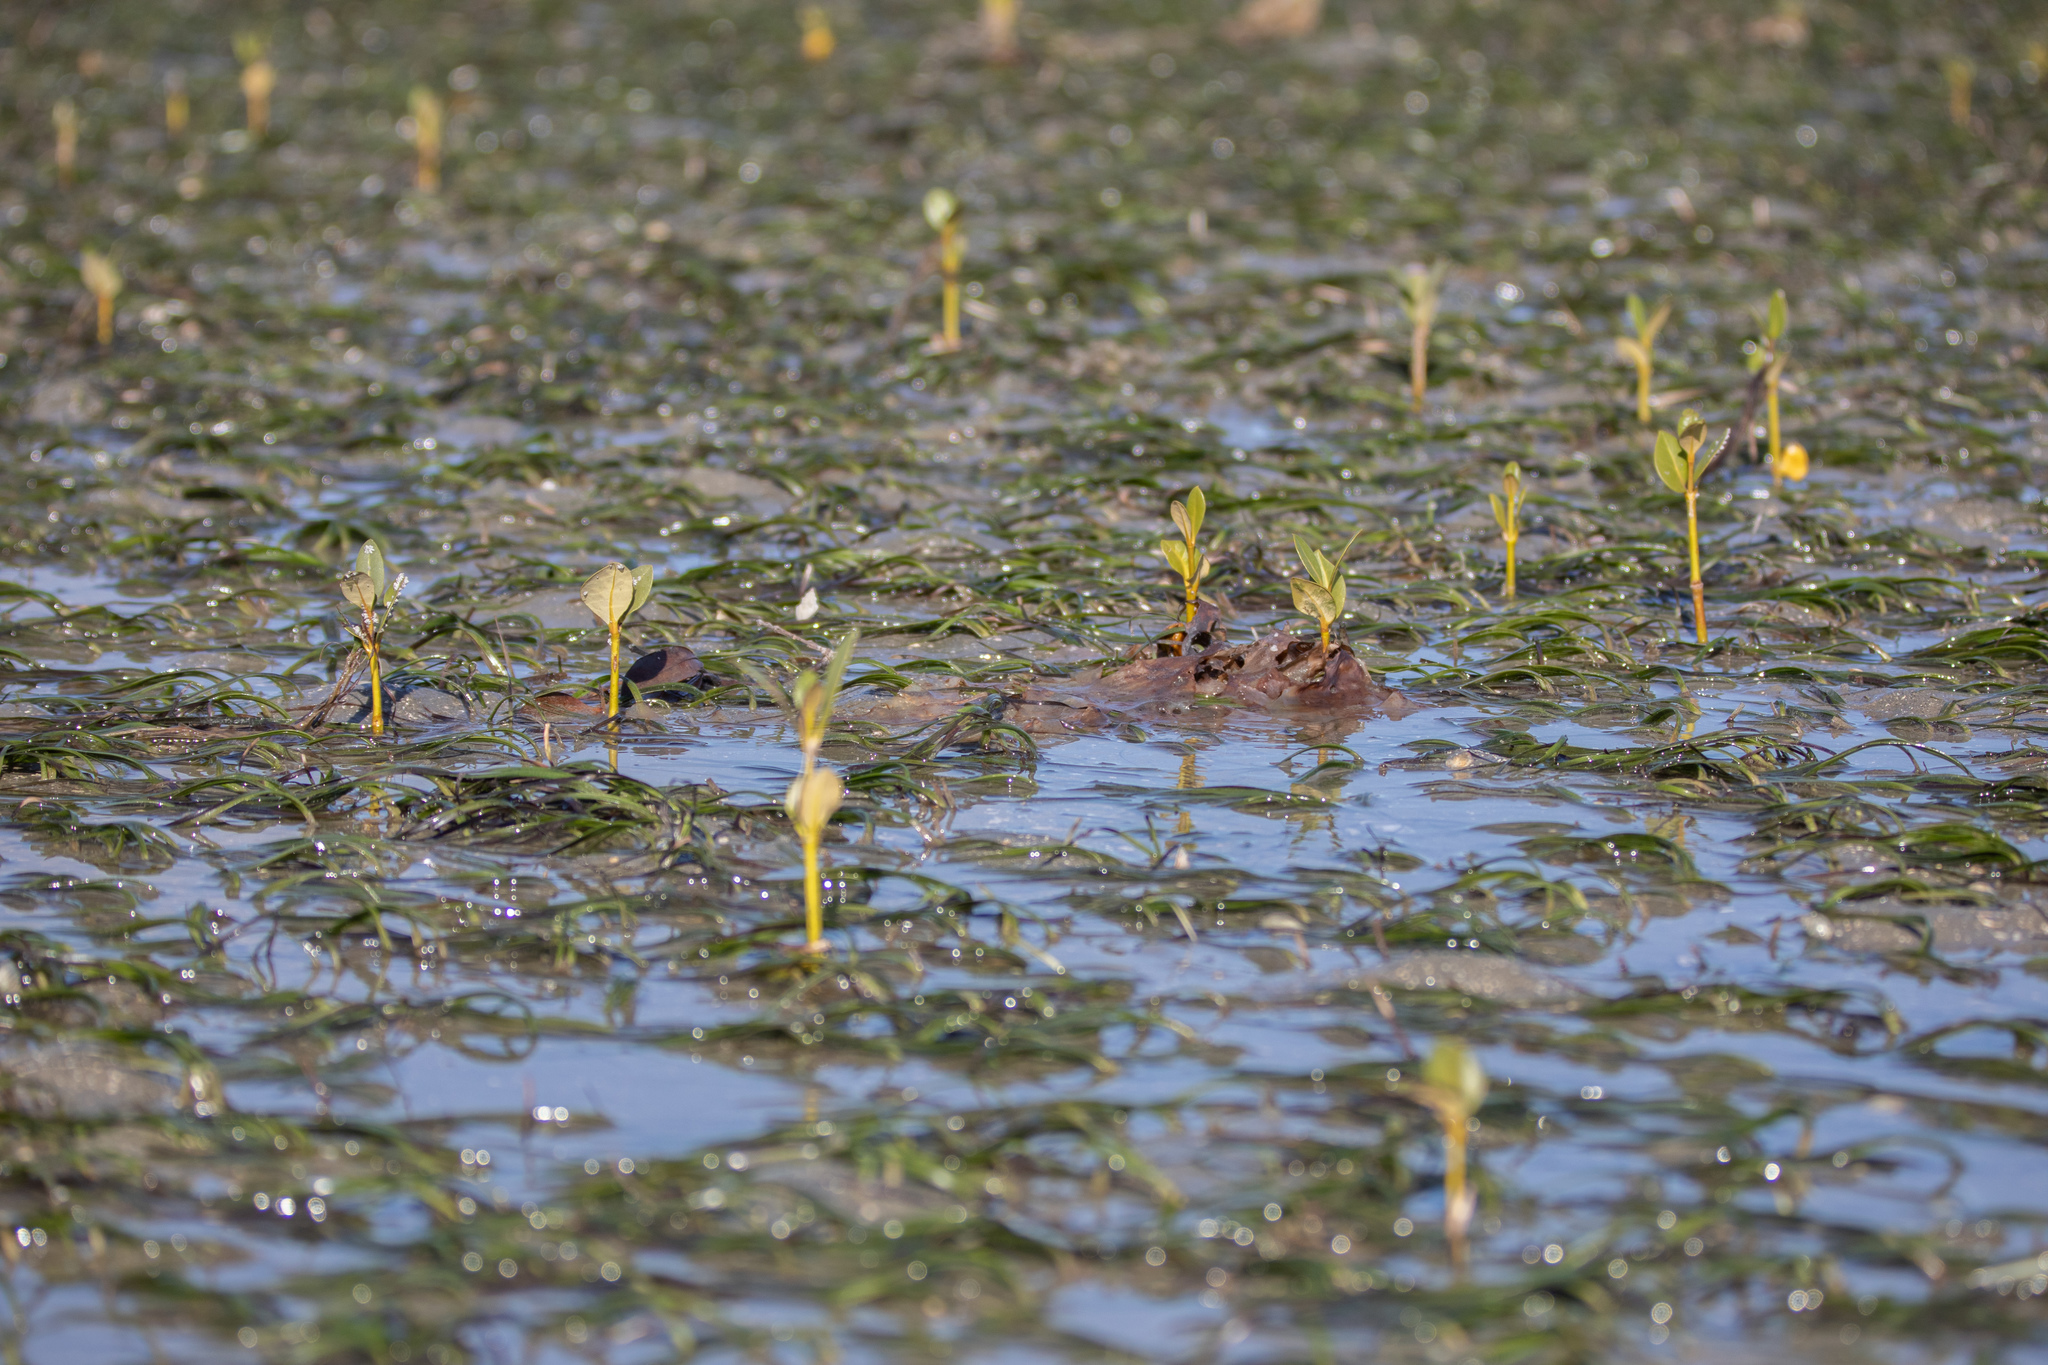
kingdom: Plantae
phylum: Tracheophyta
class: Magnoliopsida
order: Lamiales
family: Acanthaceae
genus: Avicennia
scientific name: Avicennia marina
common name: Gray mangrove
